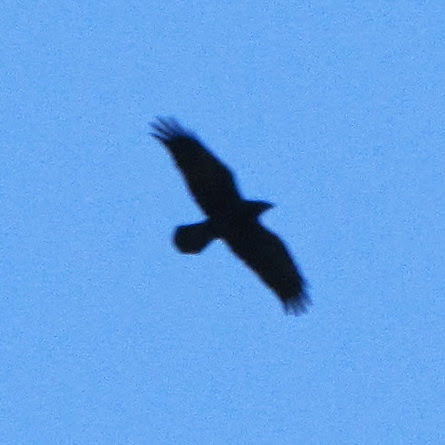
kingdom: Animalia
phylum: Chordata
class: Aves
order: Passeriformes
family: Corvidae
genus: Corvus
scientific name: Corvus corax
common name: Common raven
